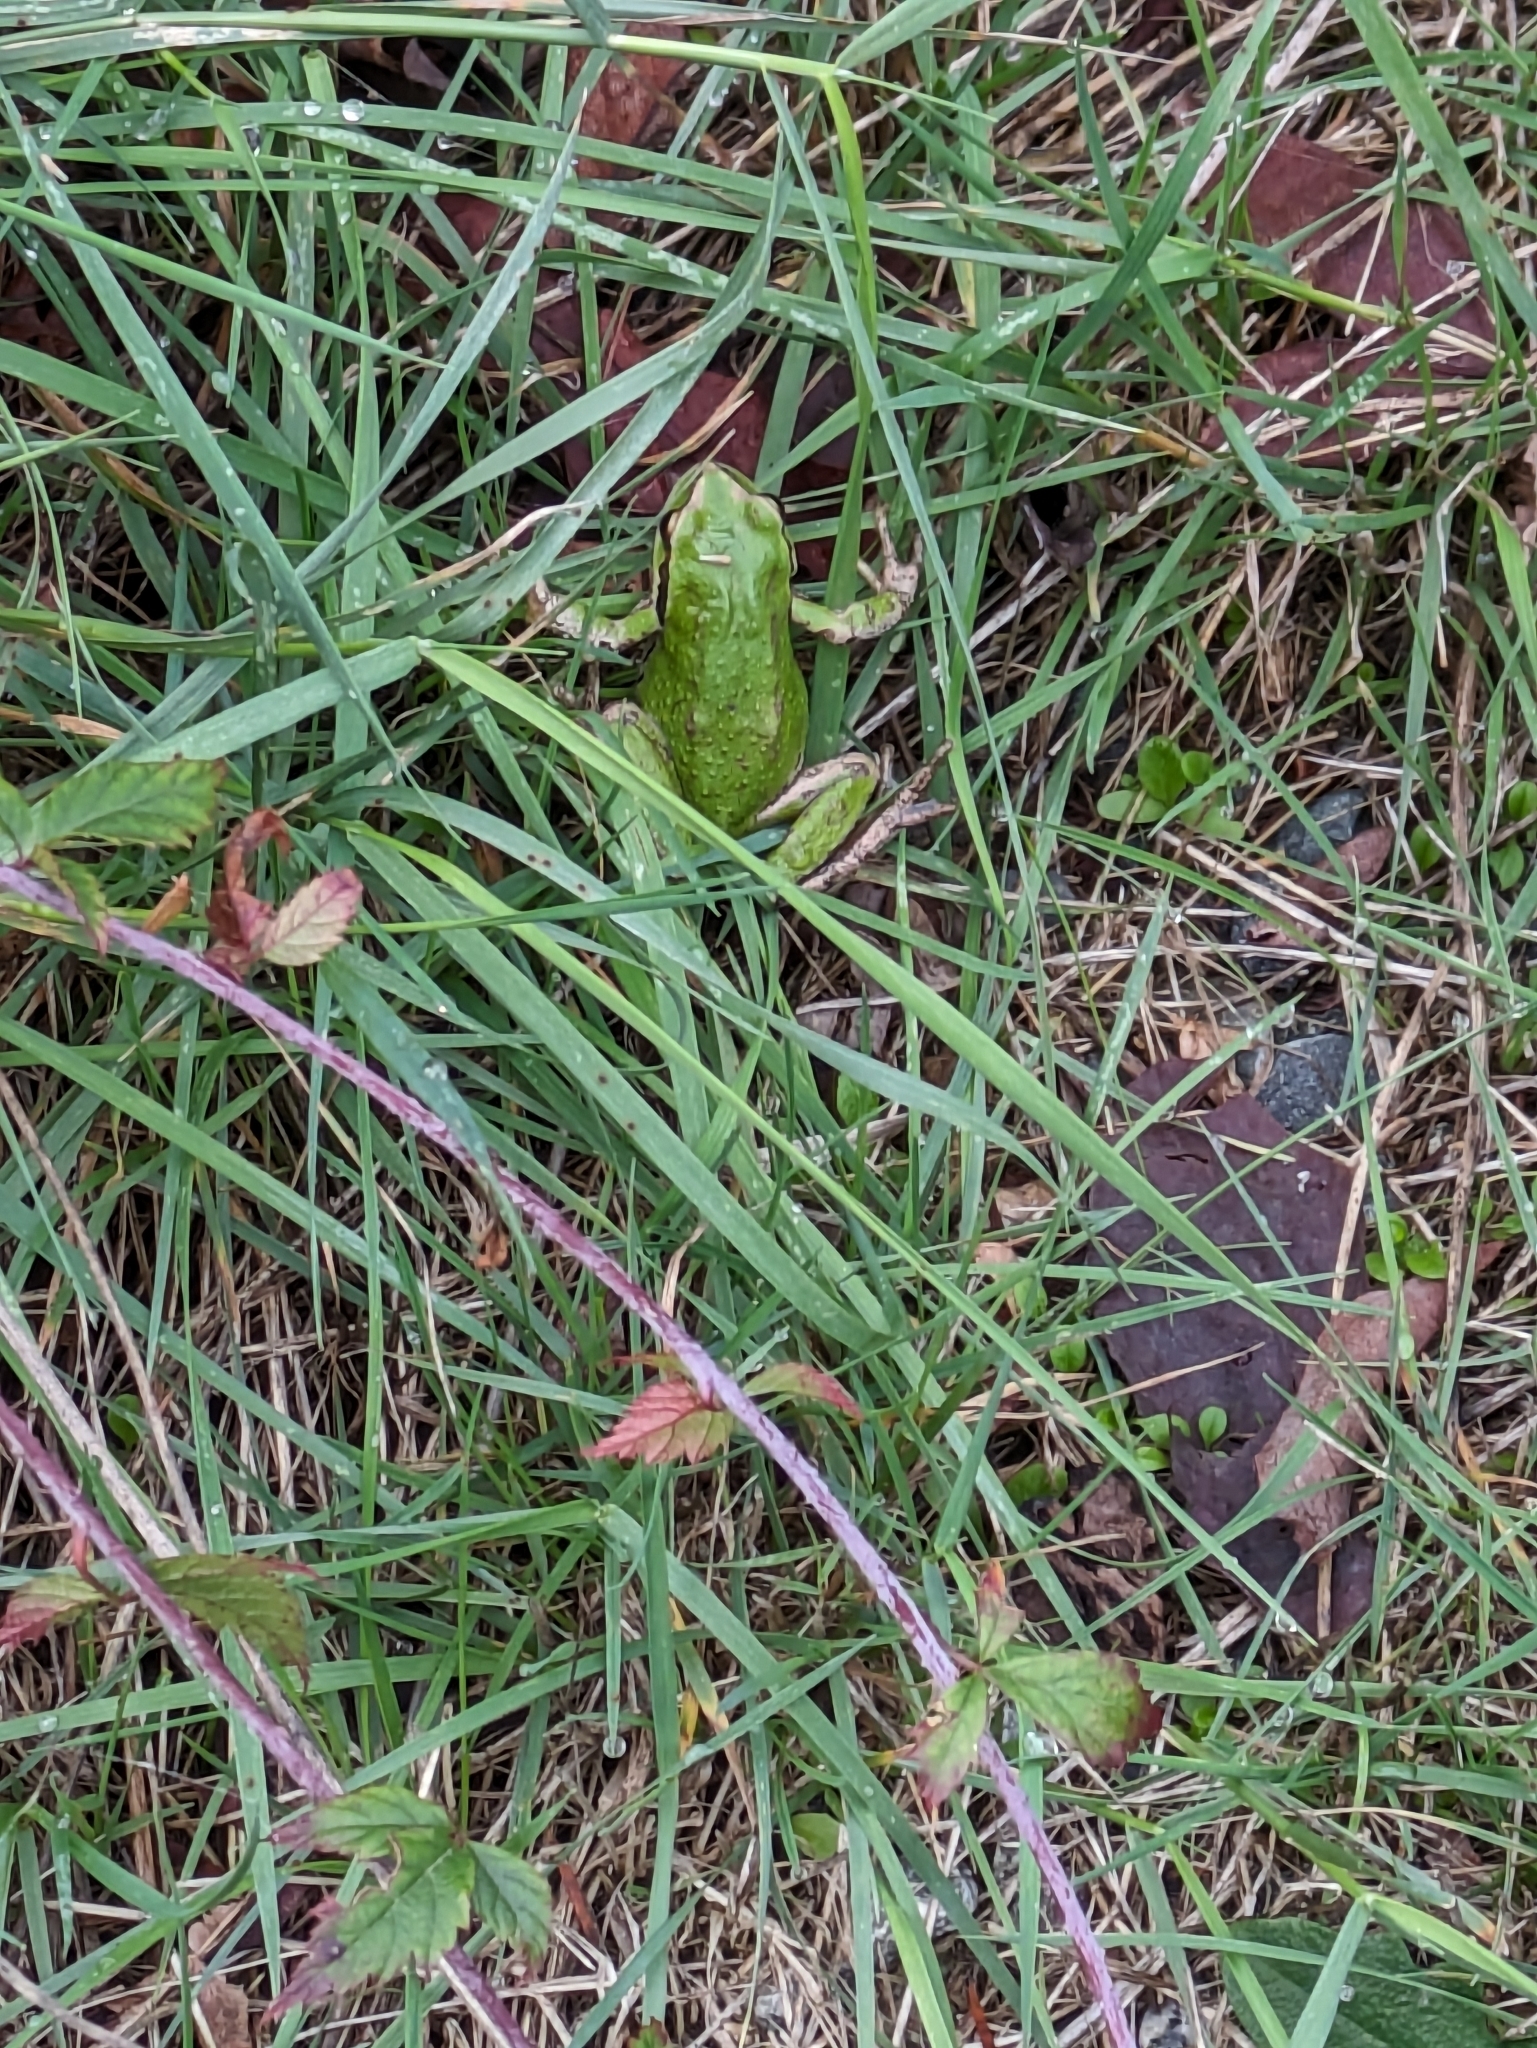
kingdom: Animalia
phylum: Chordata
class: Amphibia
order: Anura
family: Hylidae
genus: Pseudacris
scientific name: Pseudacris regilla
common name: Pacific chorus frog
